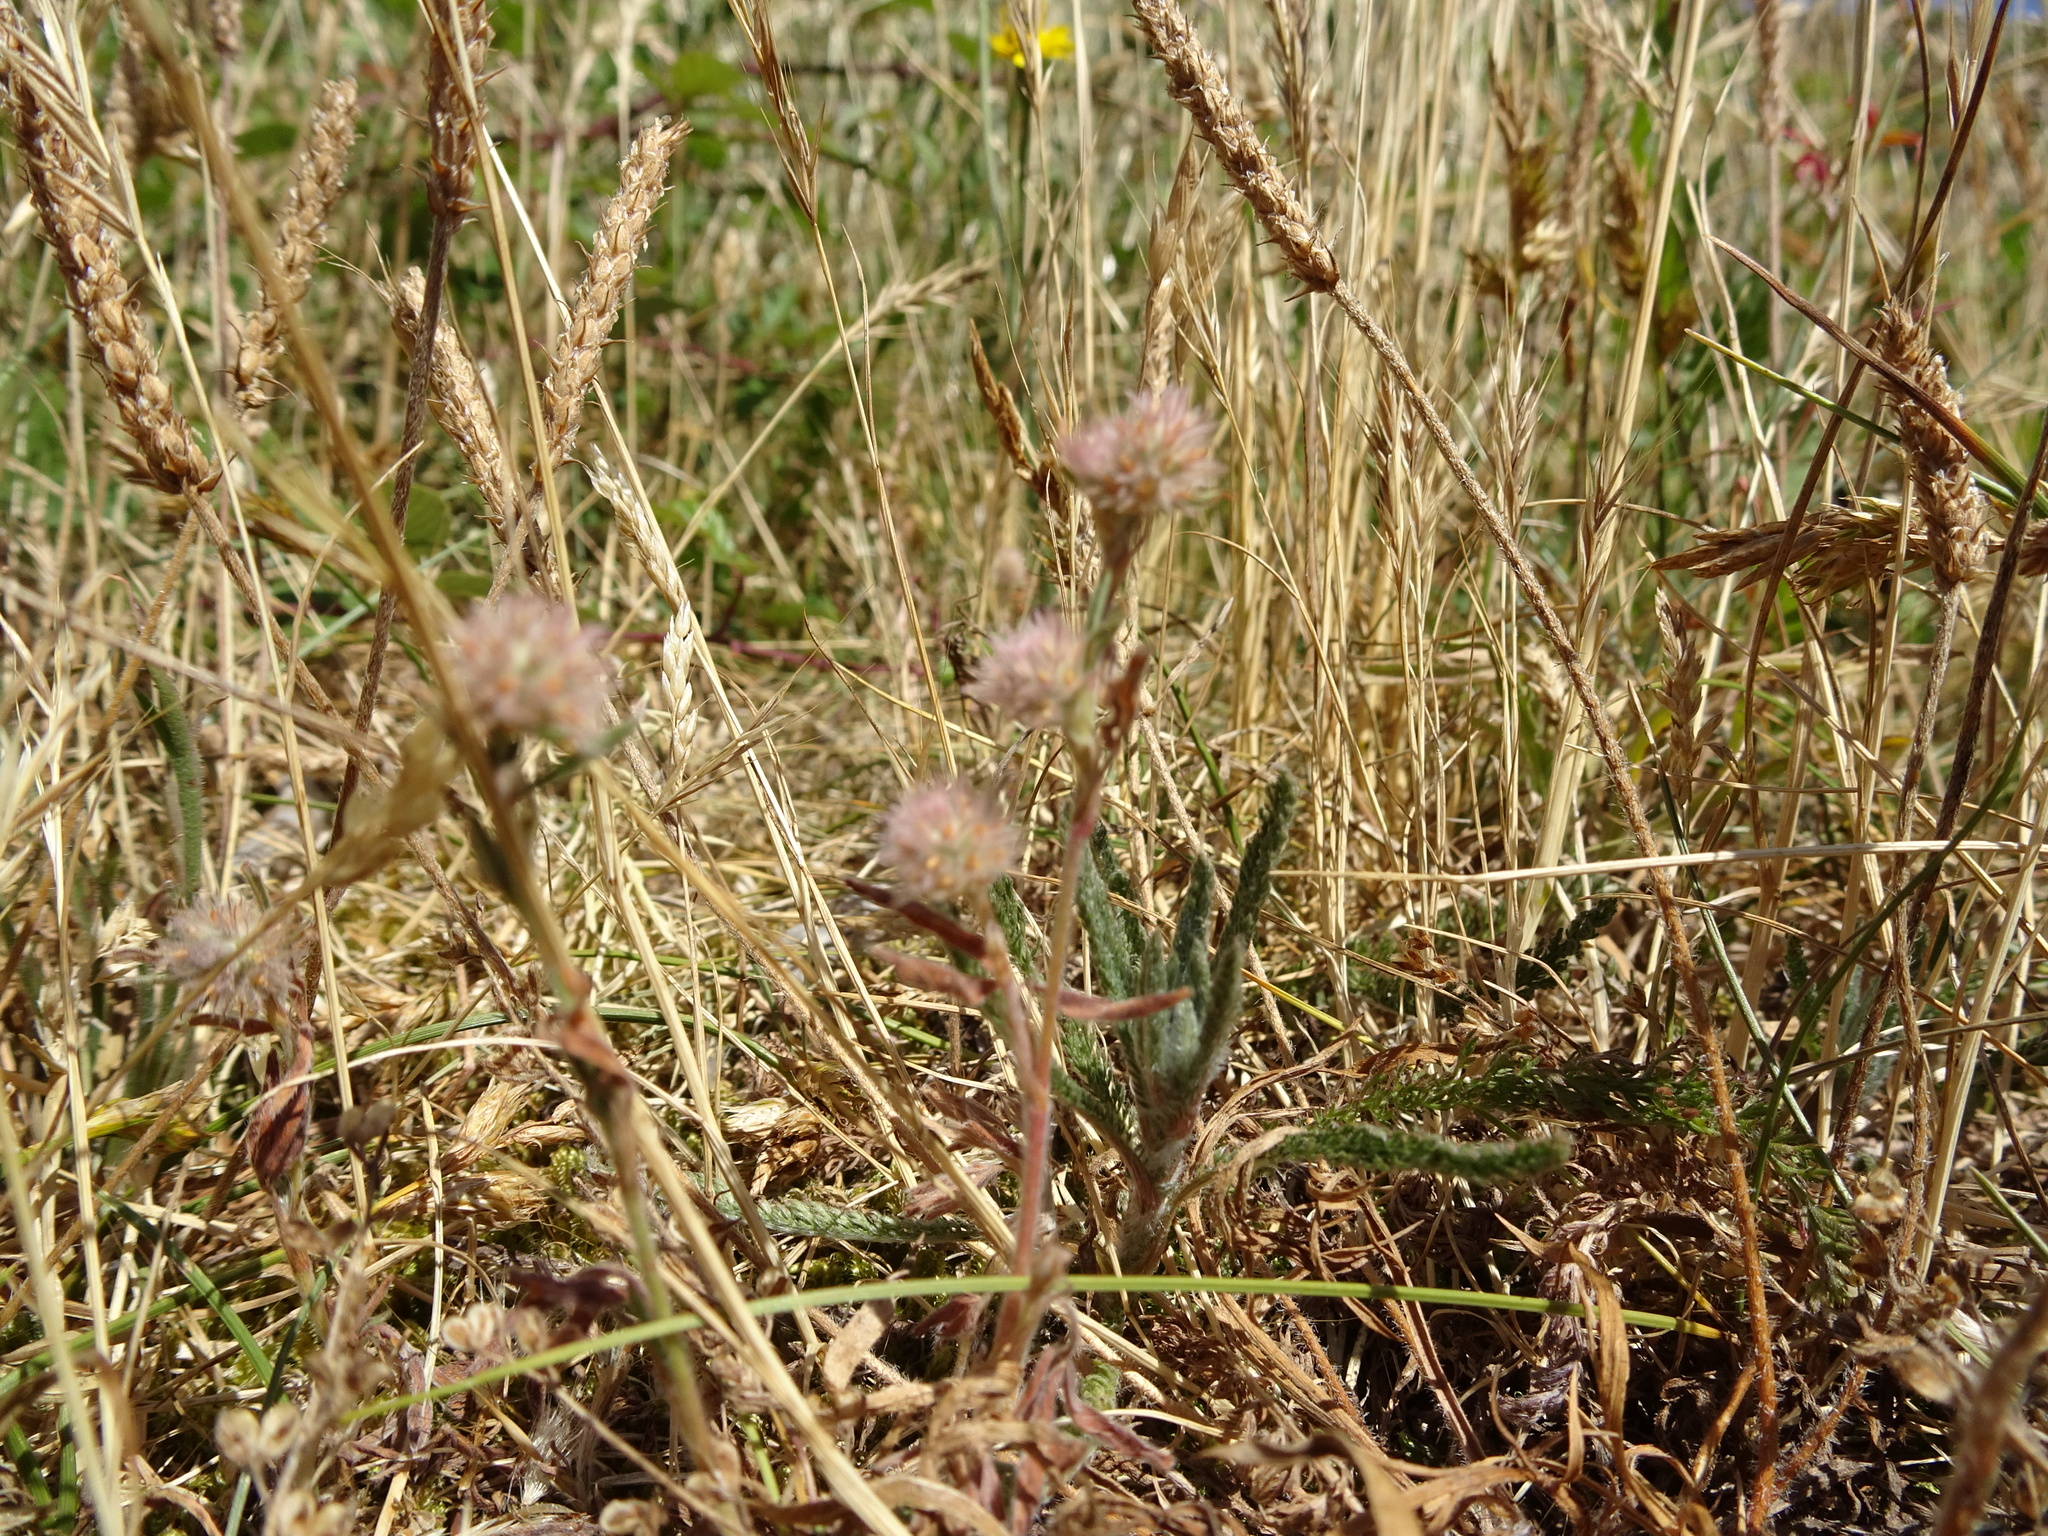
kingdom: Plantae
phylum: Tracheophyta
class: Magnoliopsida
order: Fabales
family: Fabaceae
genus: Trifolium
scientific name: Trifolium arvense
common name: Hare's-foot clover
